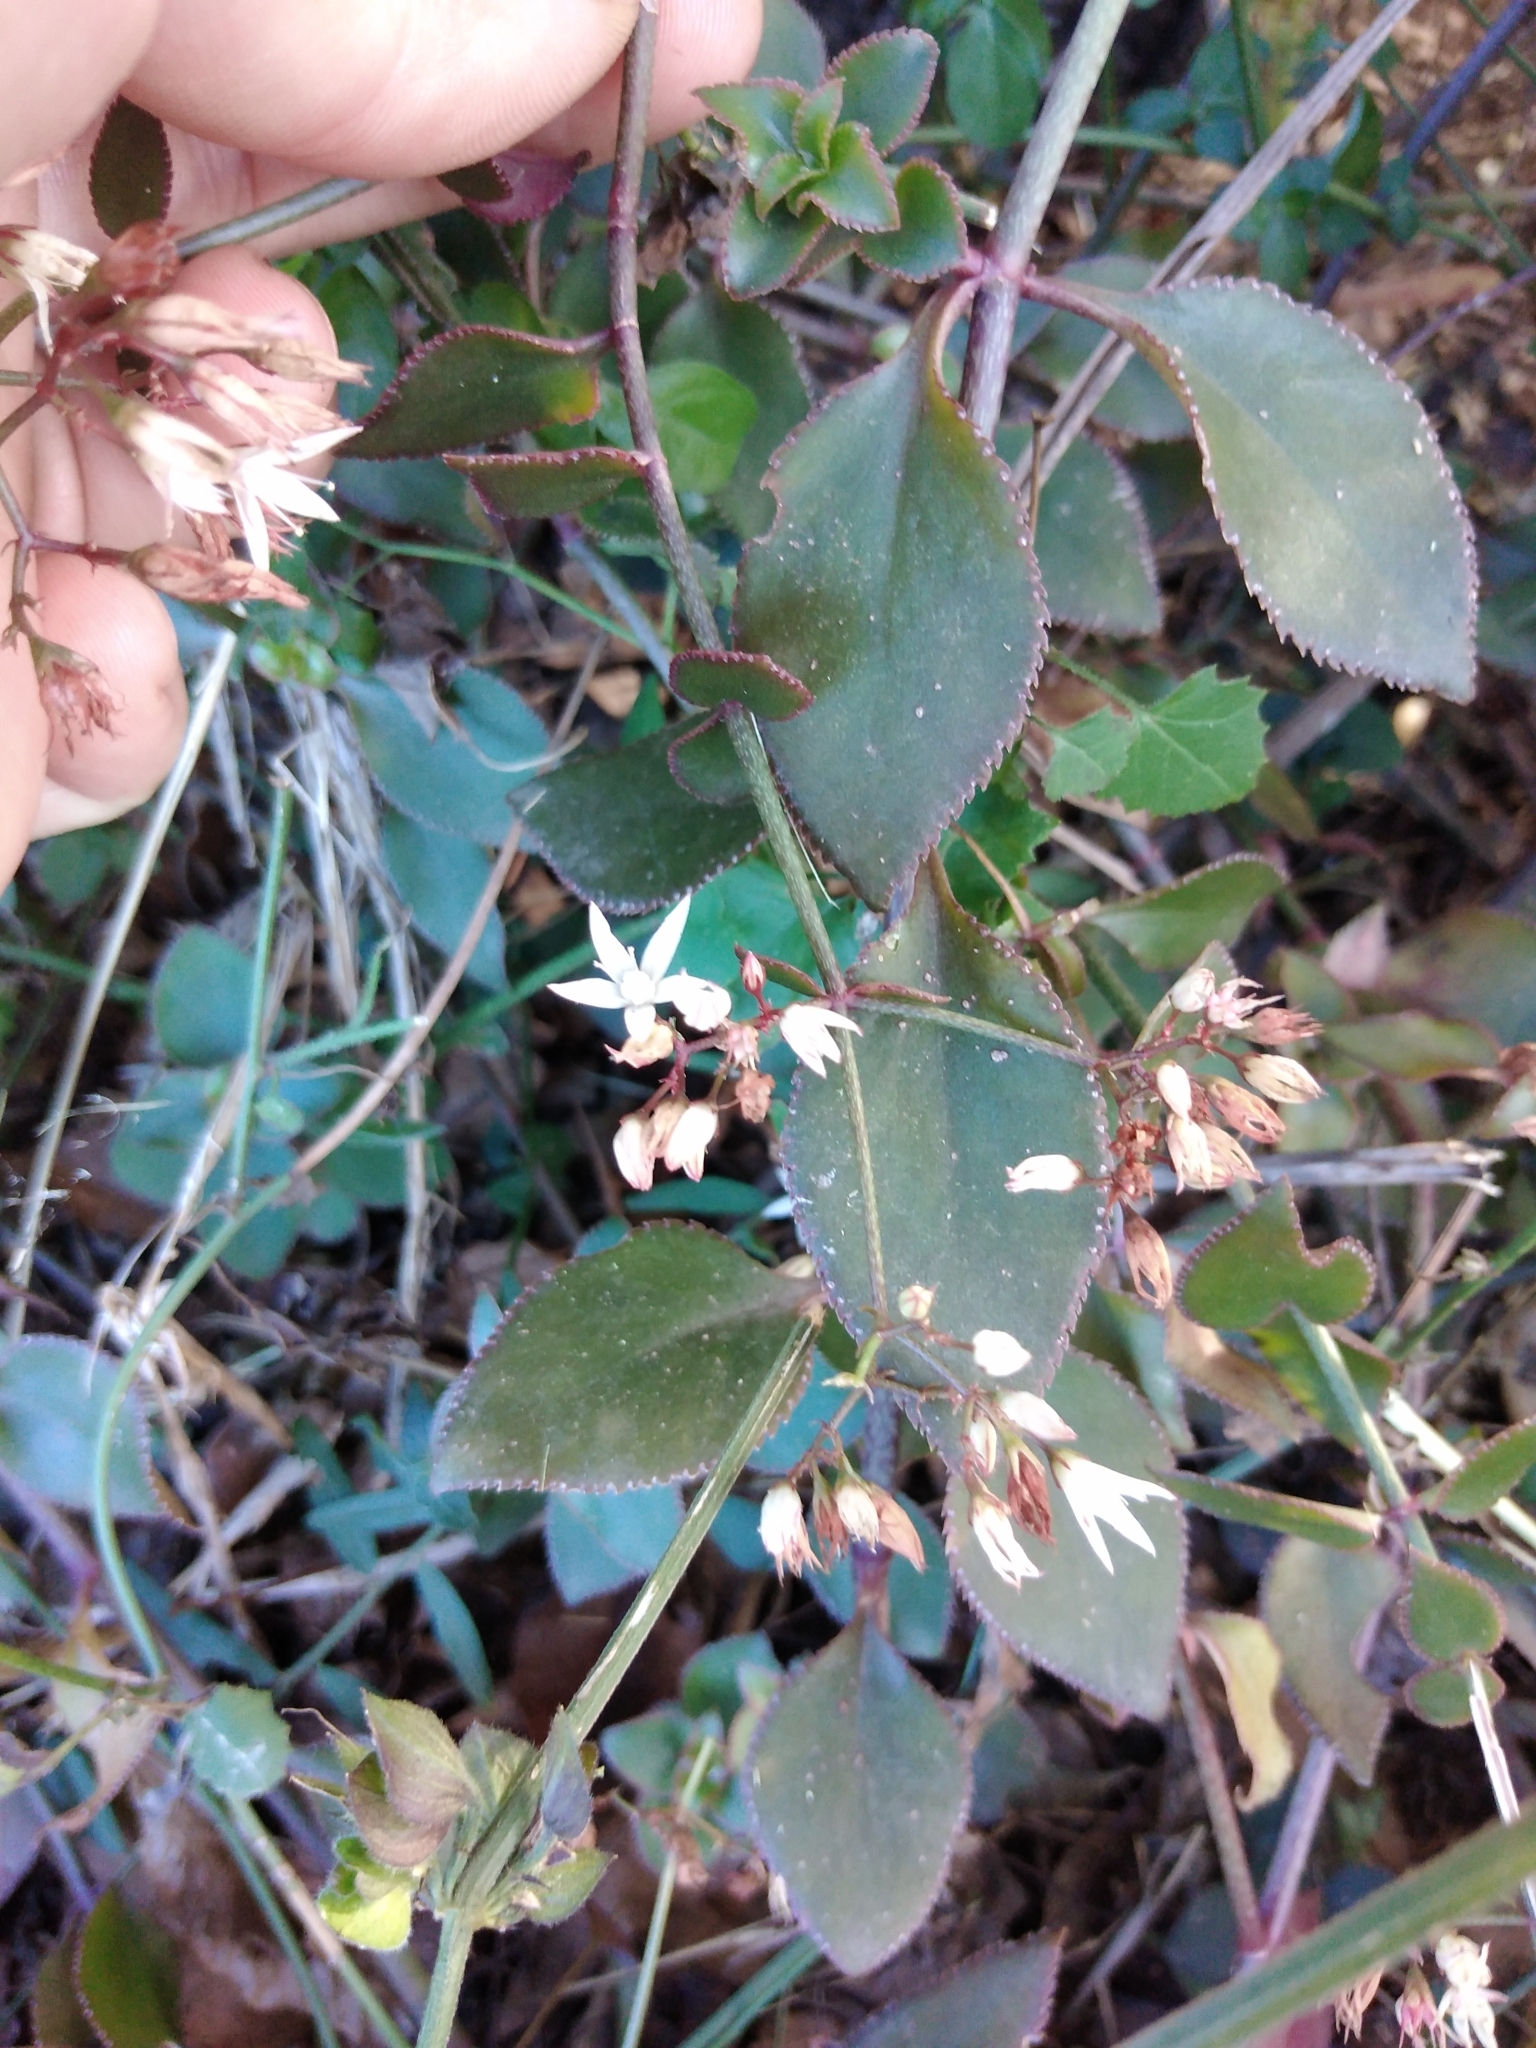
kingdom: Plantae
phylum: Tracheophyta
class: Magnoliopsida
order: Saxifragales
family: Crassulaceae
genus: Crassula
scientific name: Crassula sarmentosa
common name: Jade-tree
